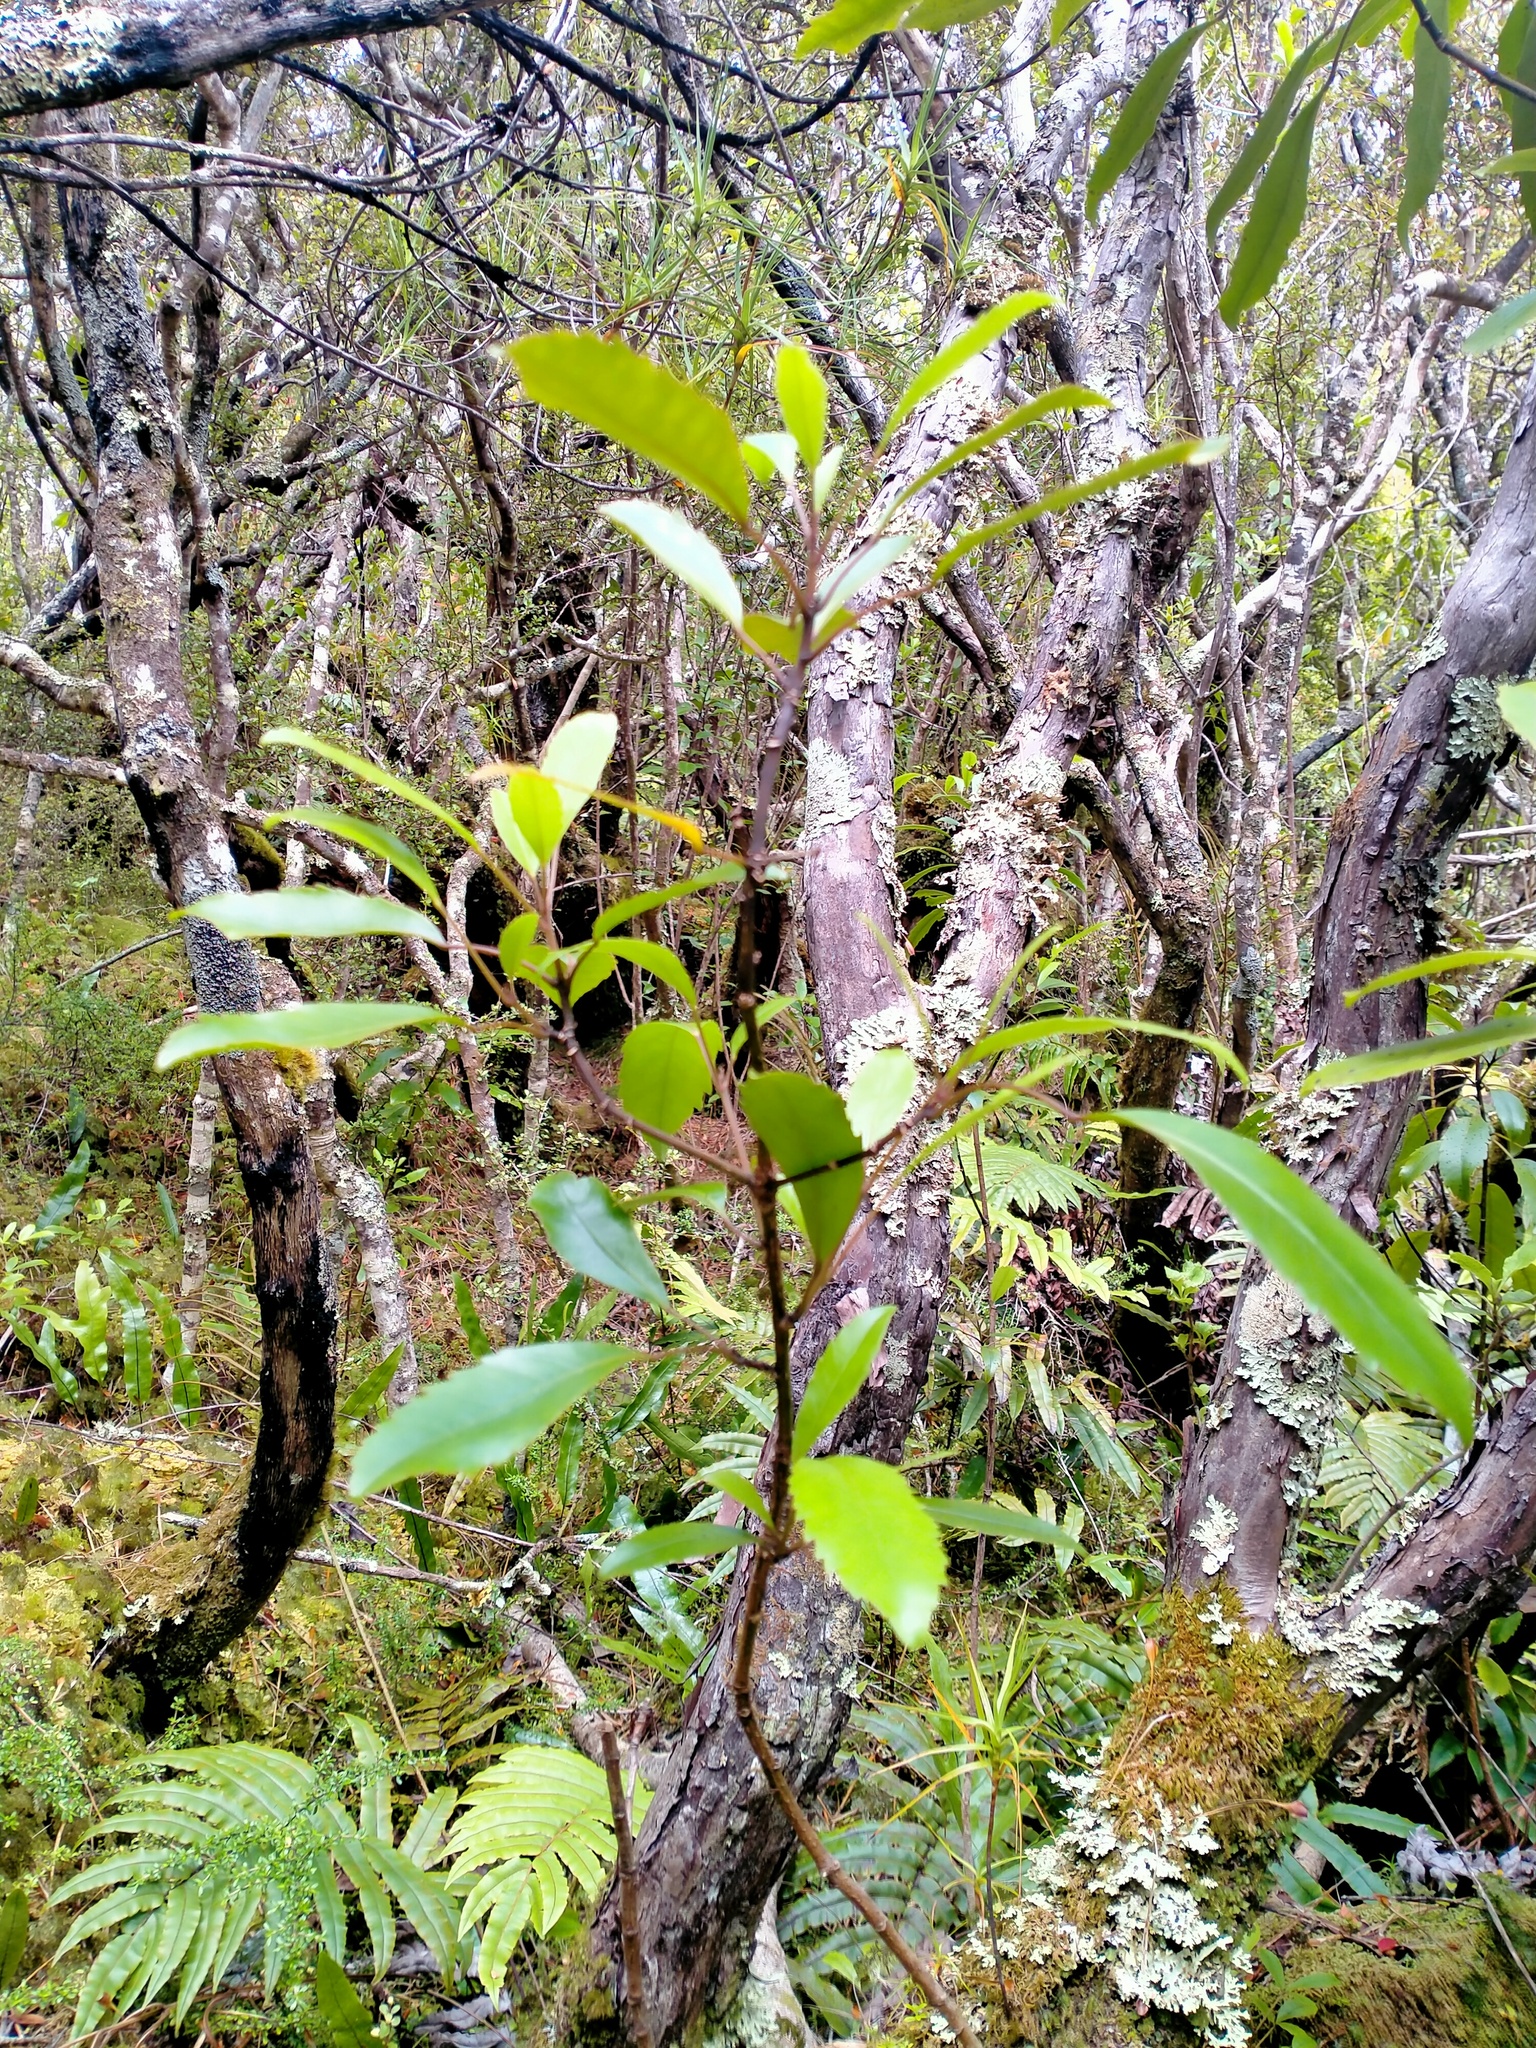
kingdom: Plantae
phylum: Tracheophyta
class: Magnoliopsida
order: Apiales
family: Araliaceae
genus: Raukaua
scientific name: Raukaua simplex
